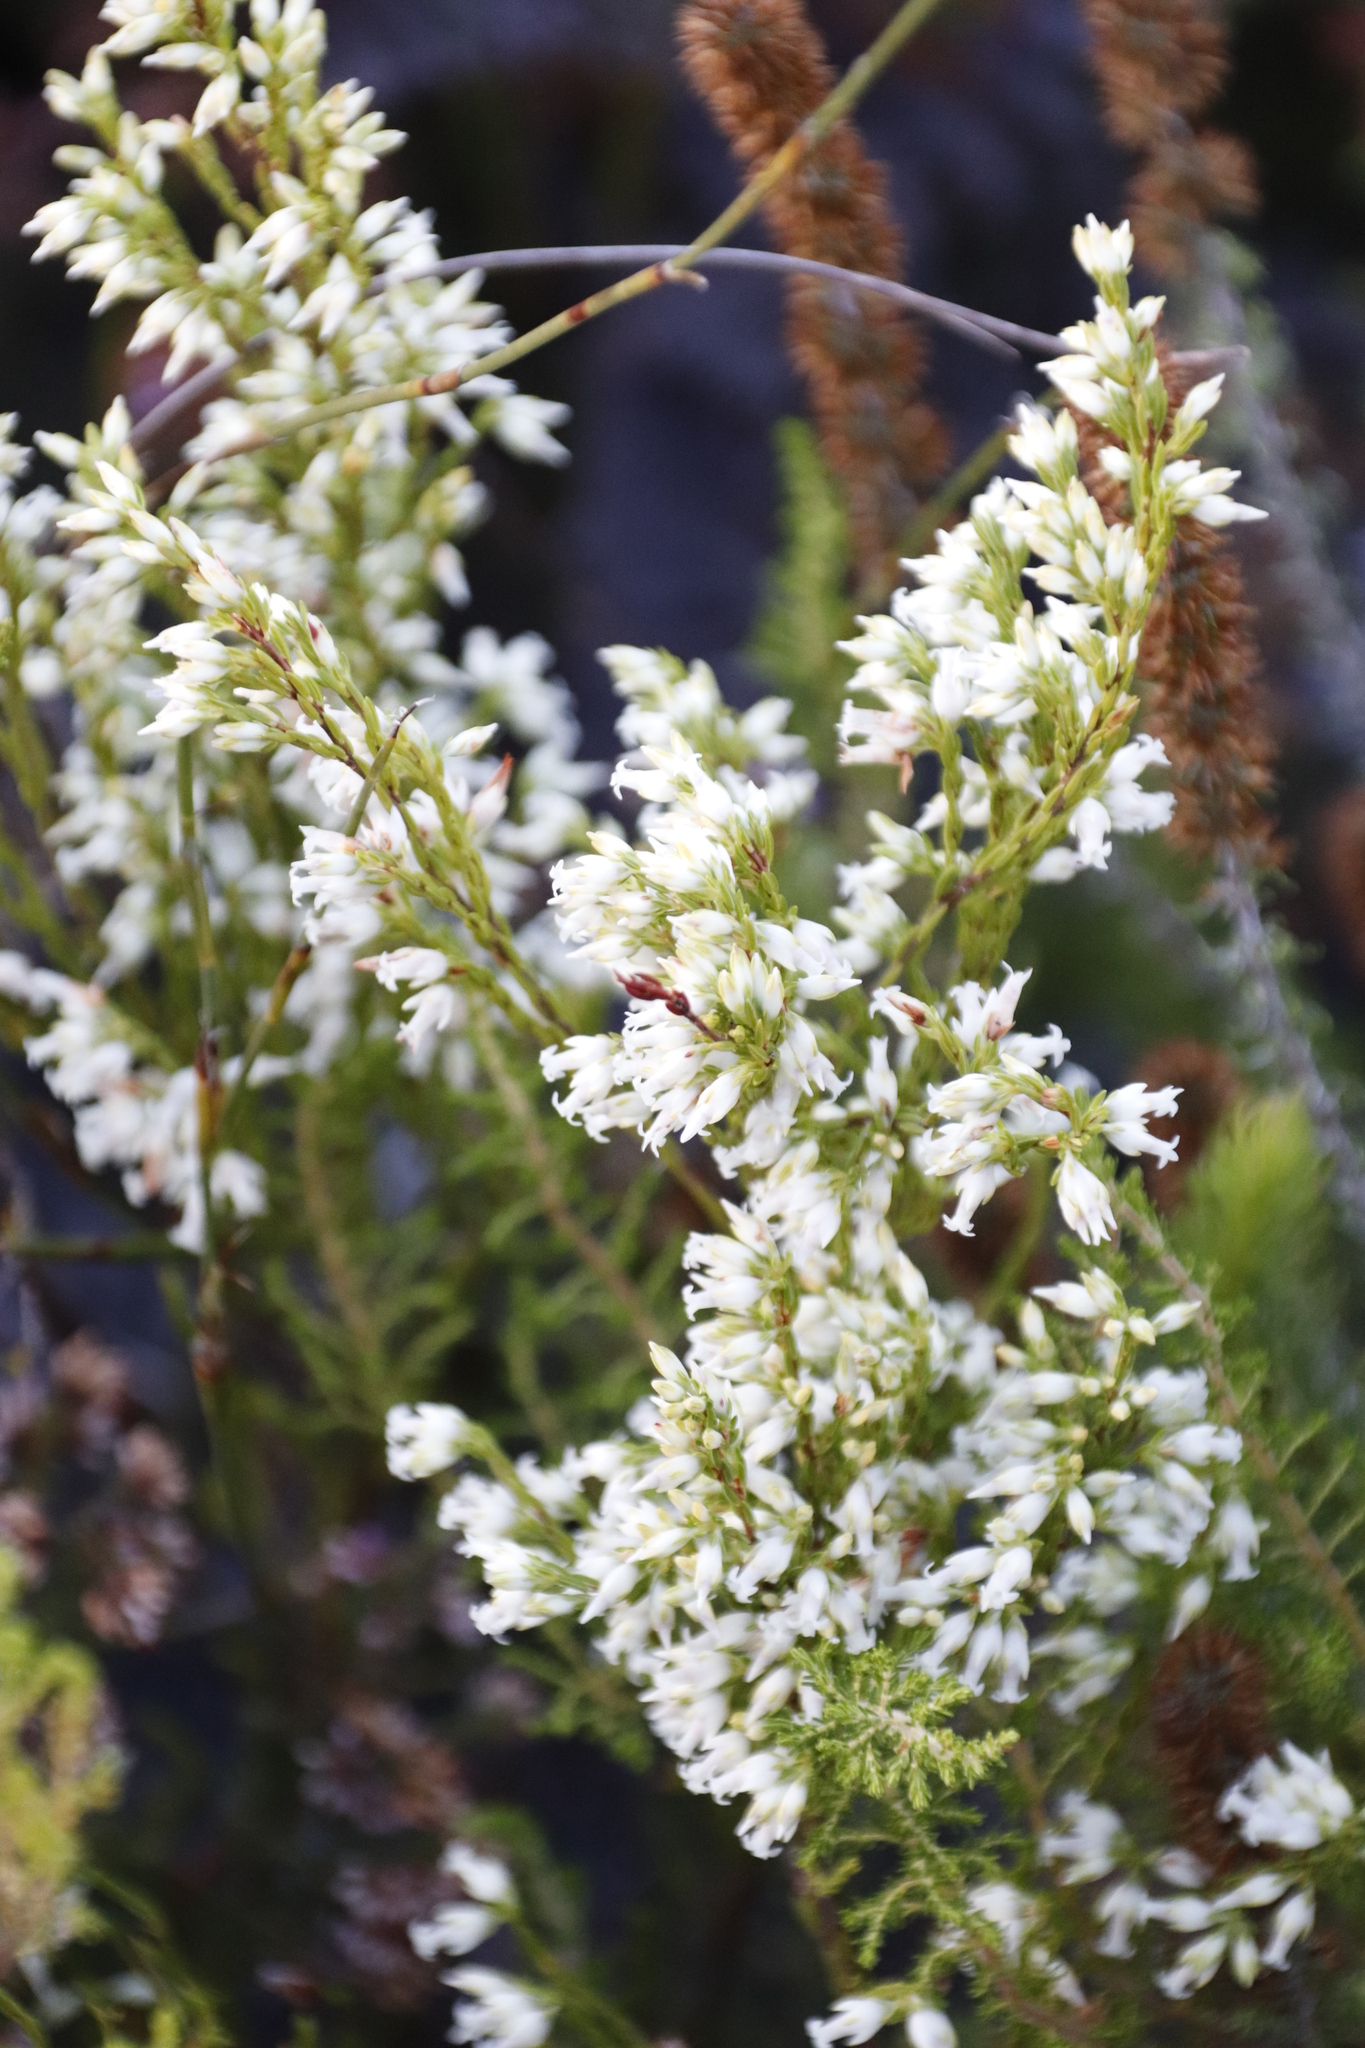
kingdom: Plantae
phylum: Tracheophyta
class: Magnoliopsida
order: Ericales
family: Ericaceae
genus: Erica
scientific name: Erica lutea
